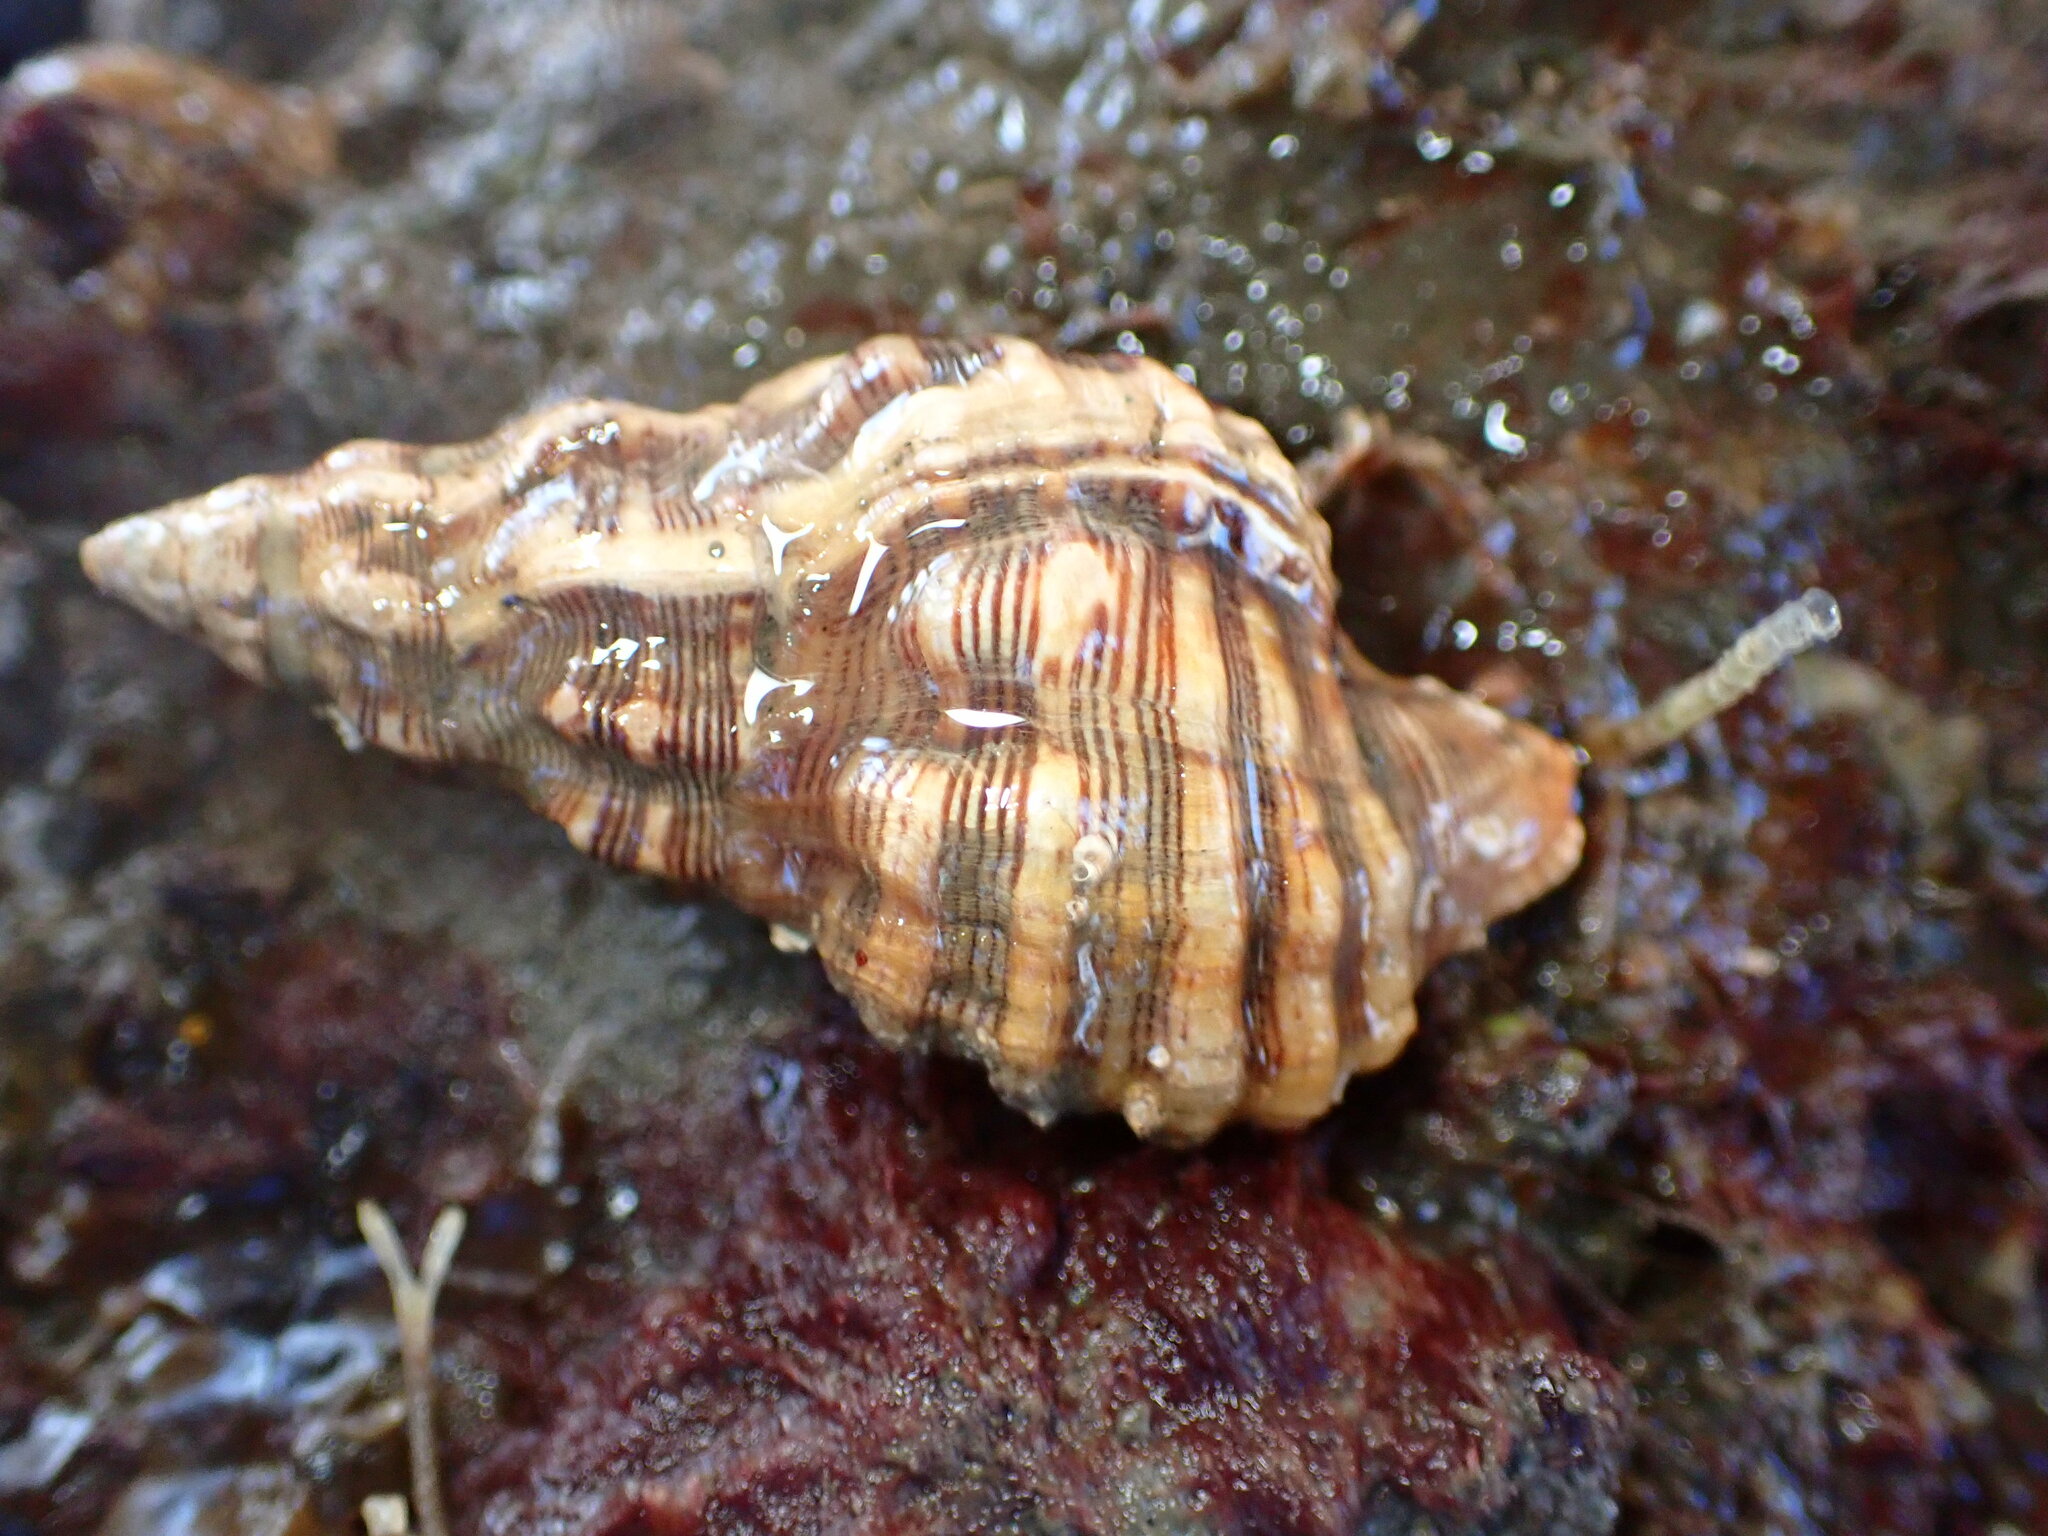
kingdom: Animalia
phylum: Mollusca
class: Gastropoda
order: Neogastropoda
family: Muricidae
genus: Roperia
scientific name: Roperia poulsoni
